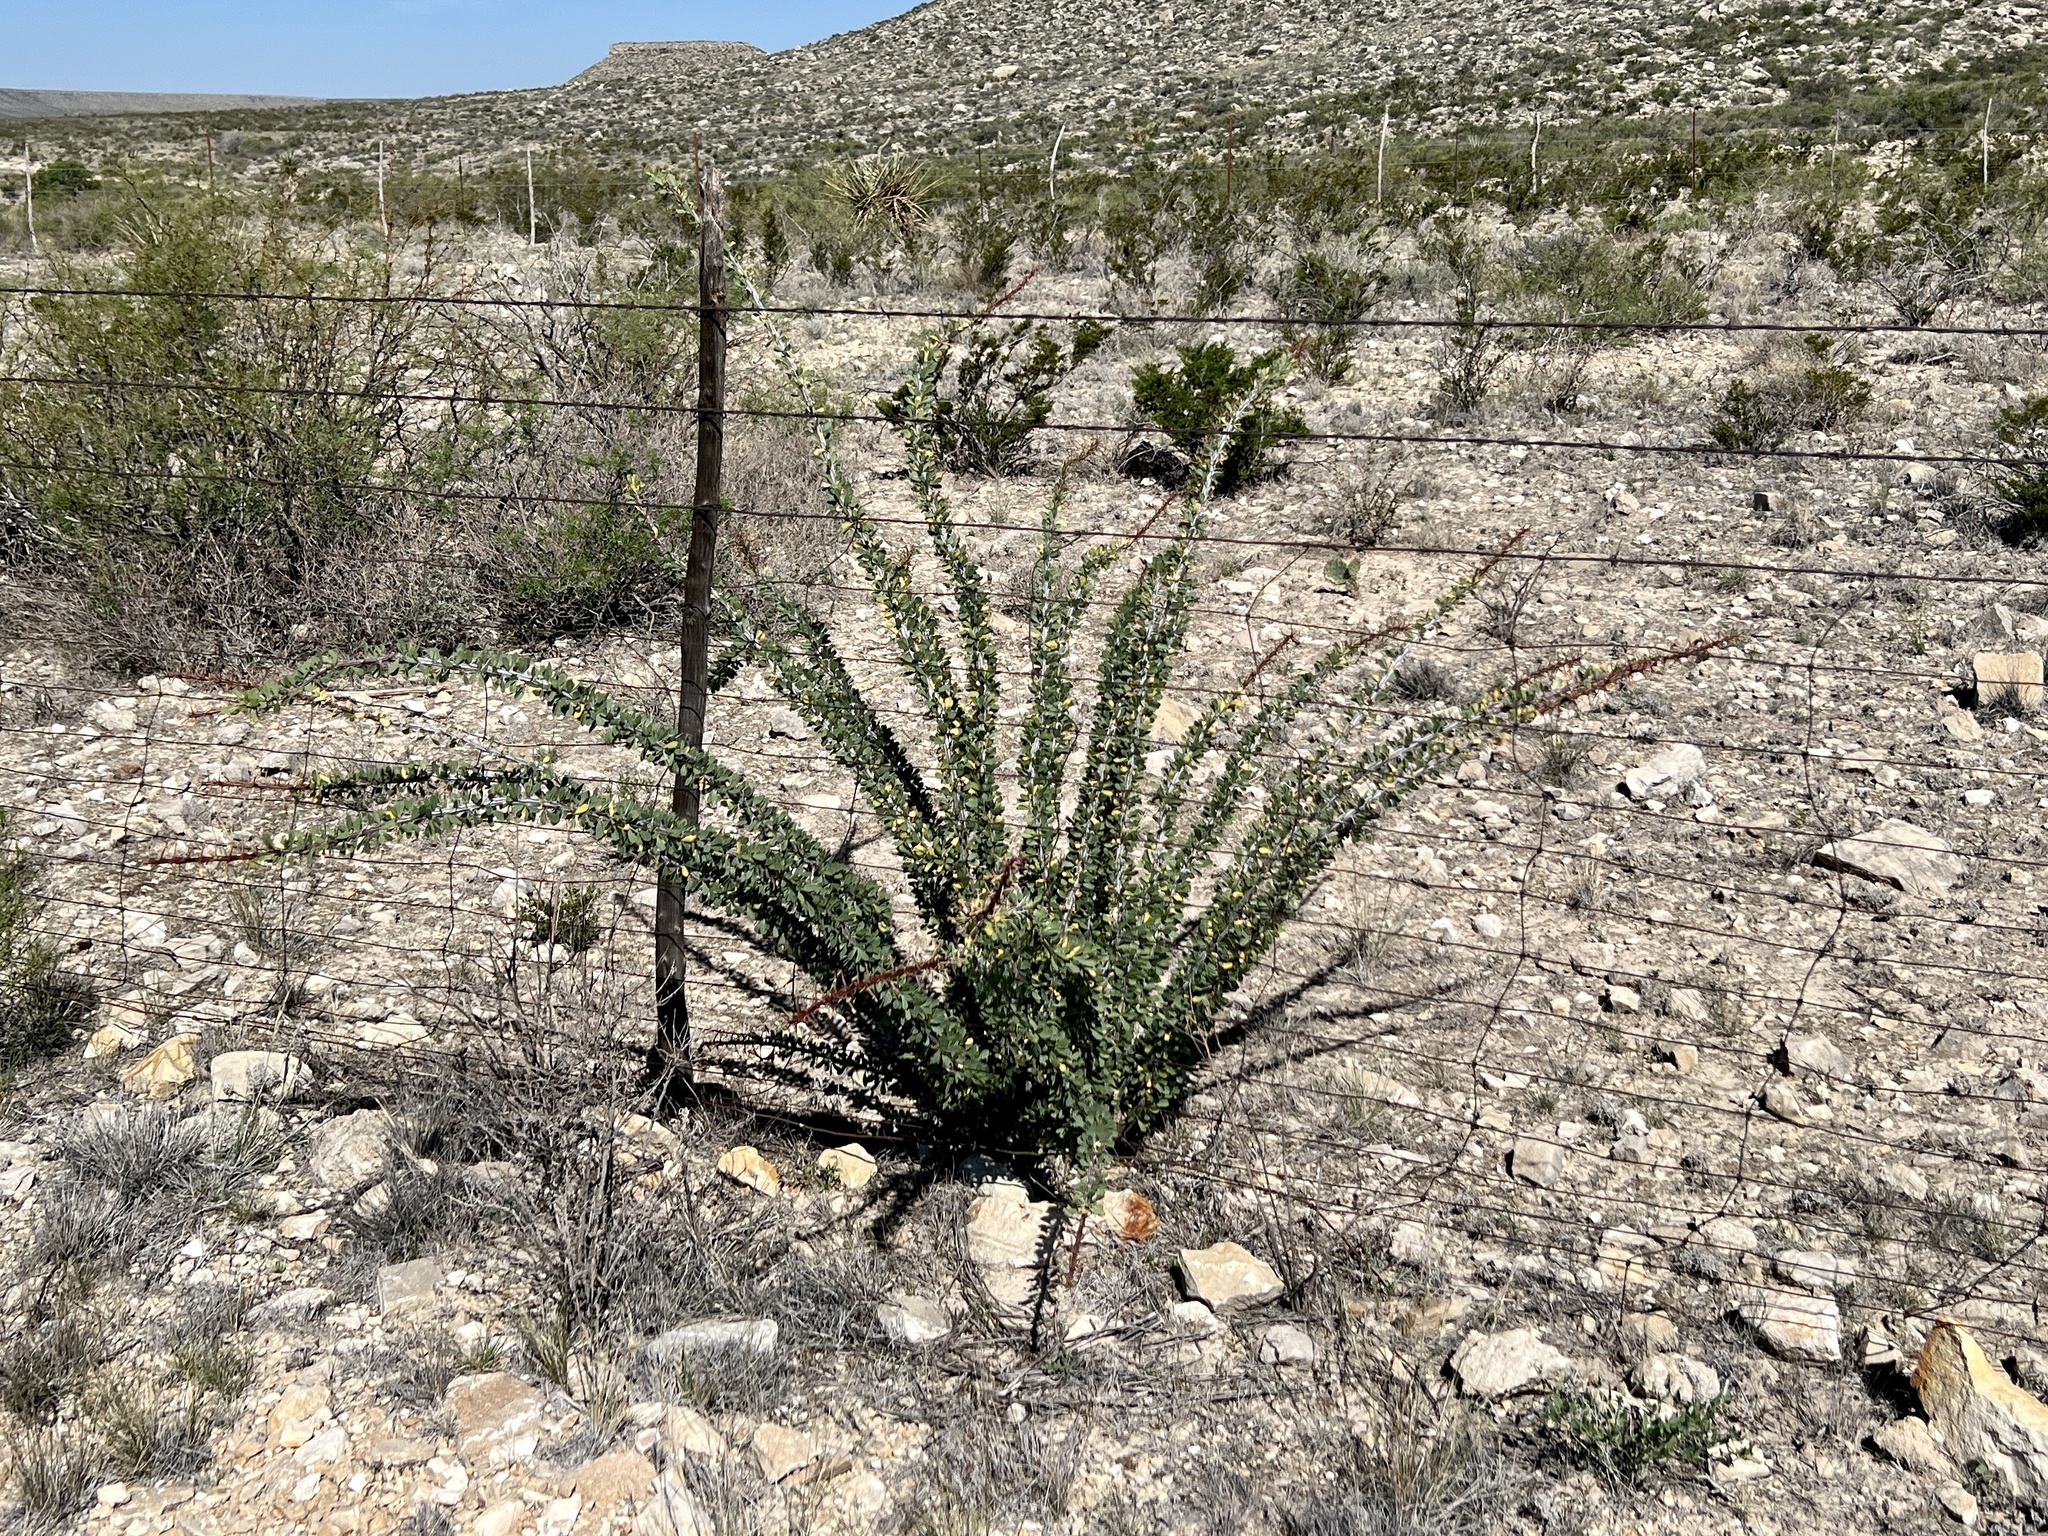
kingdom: Plantae
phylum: Tracheophyta
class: Magnoliopsida
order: Ericales
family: Fouquieriaceae
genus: Fouquieria
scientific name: Fouquieria splendens
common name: Vine-cactus
